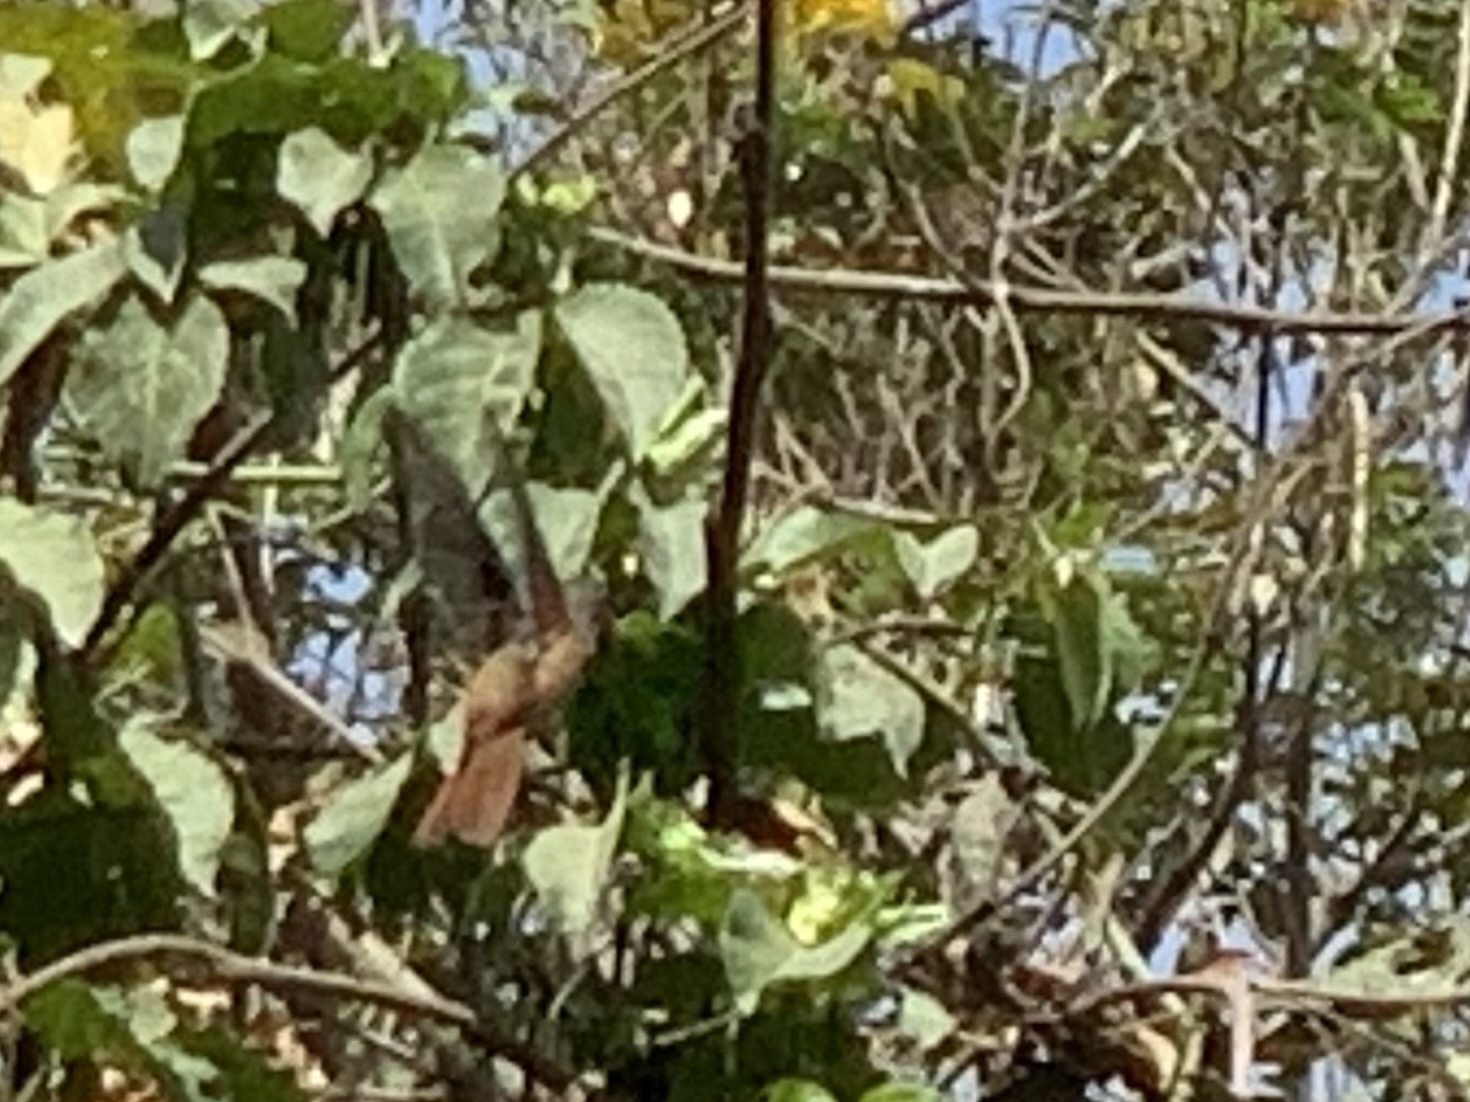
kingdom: Animalia
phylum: Chordata
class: Aves
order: Apodiformes
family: Trochilidae
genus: Amazilis
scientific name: Amazilis amazilia
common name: Amazilia hummingbird
